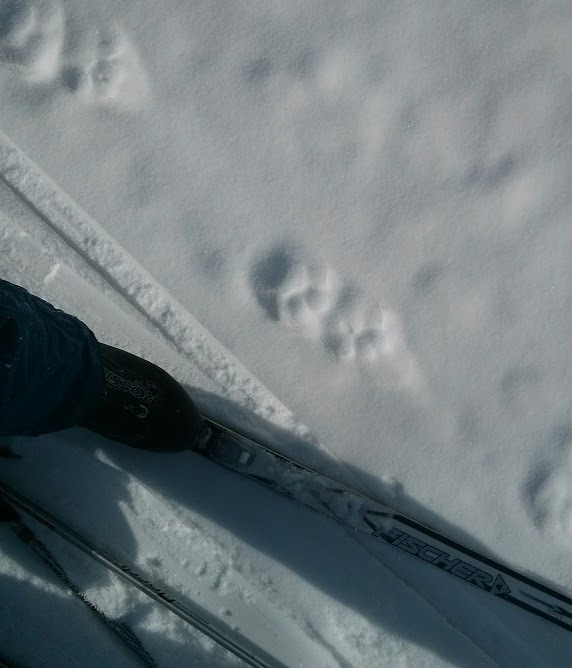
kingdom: Animalia
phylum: Chordata
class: Mammalia
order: Carnivora
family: Felidae
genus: Puma
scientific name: Puma concolor
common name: Puma
